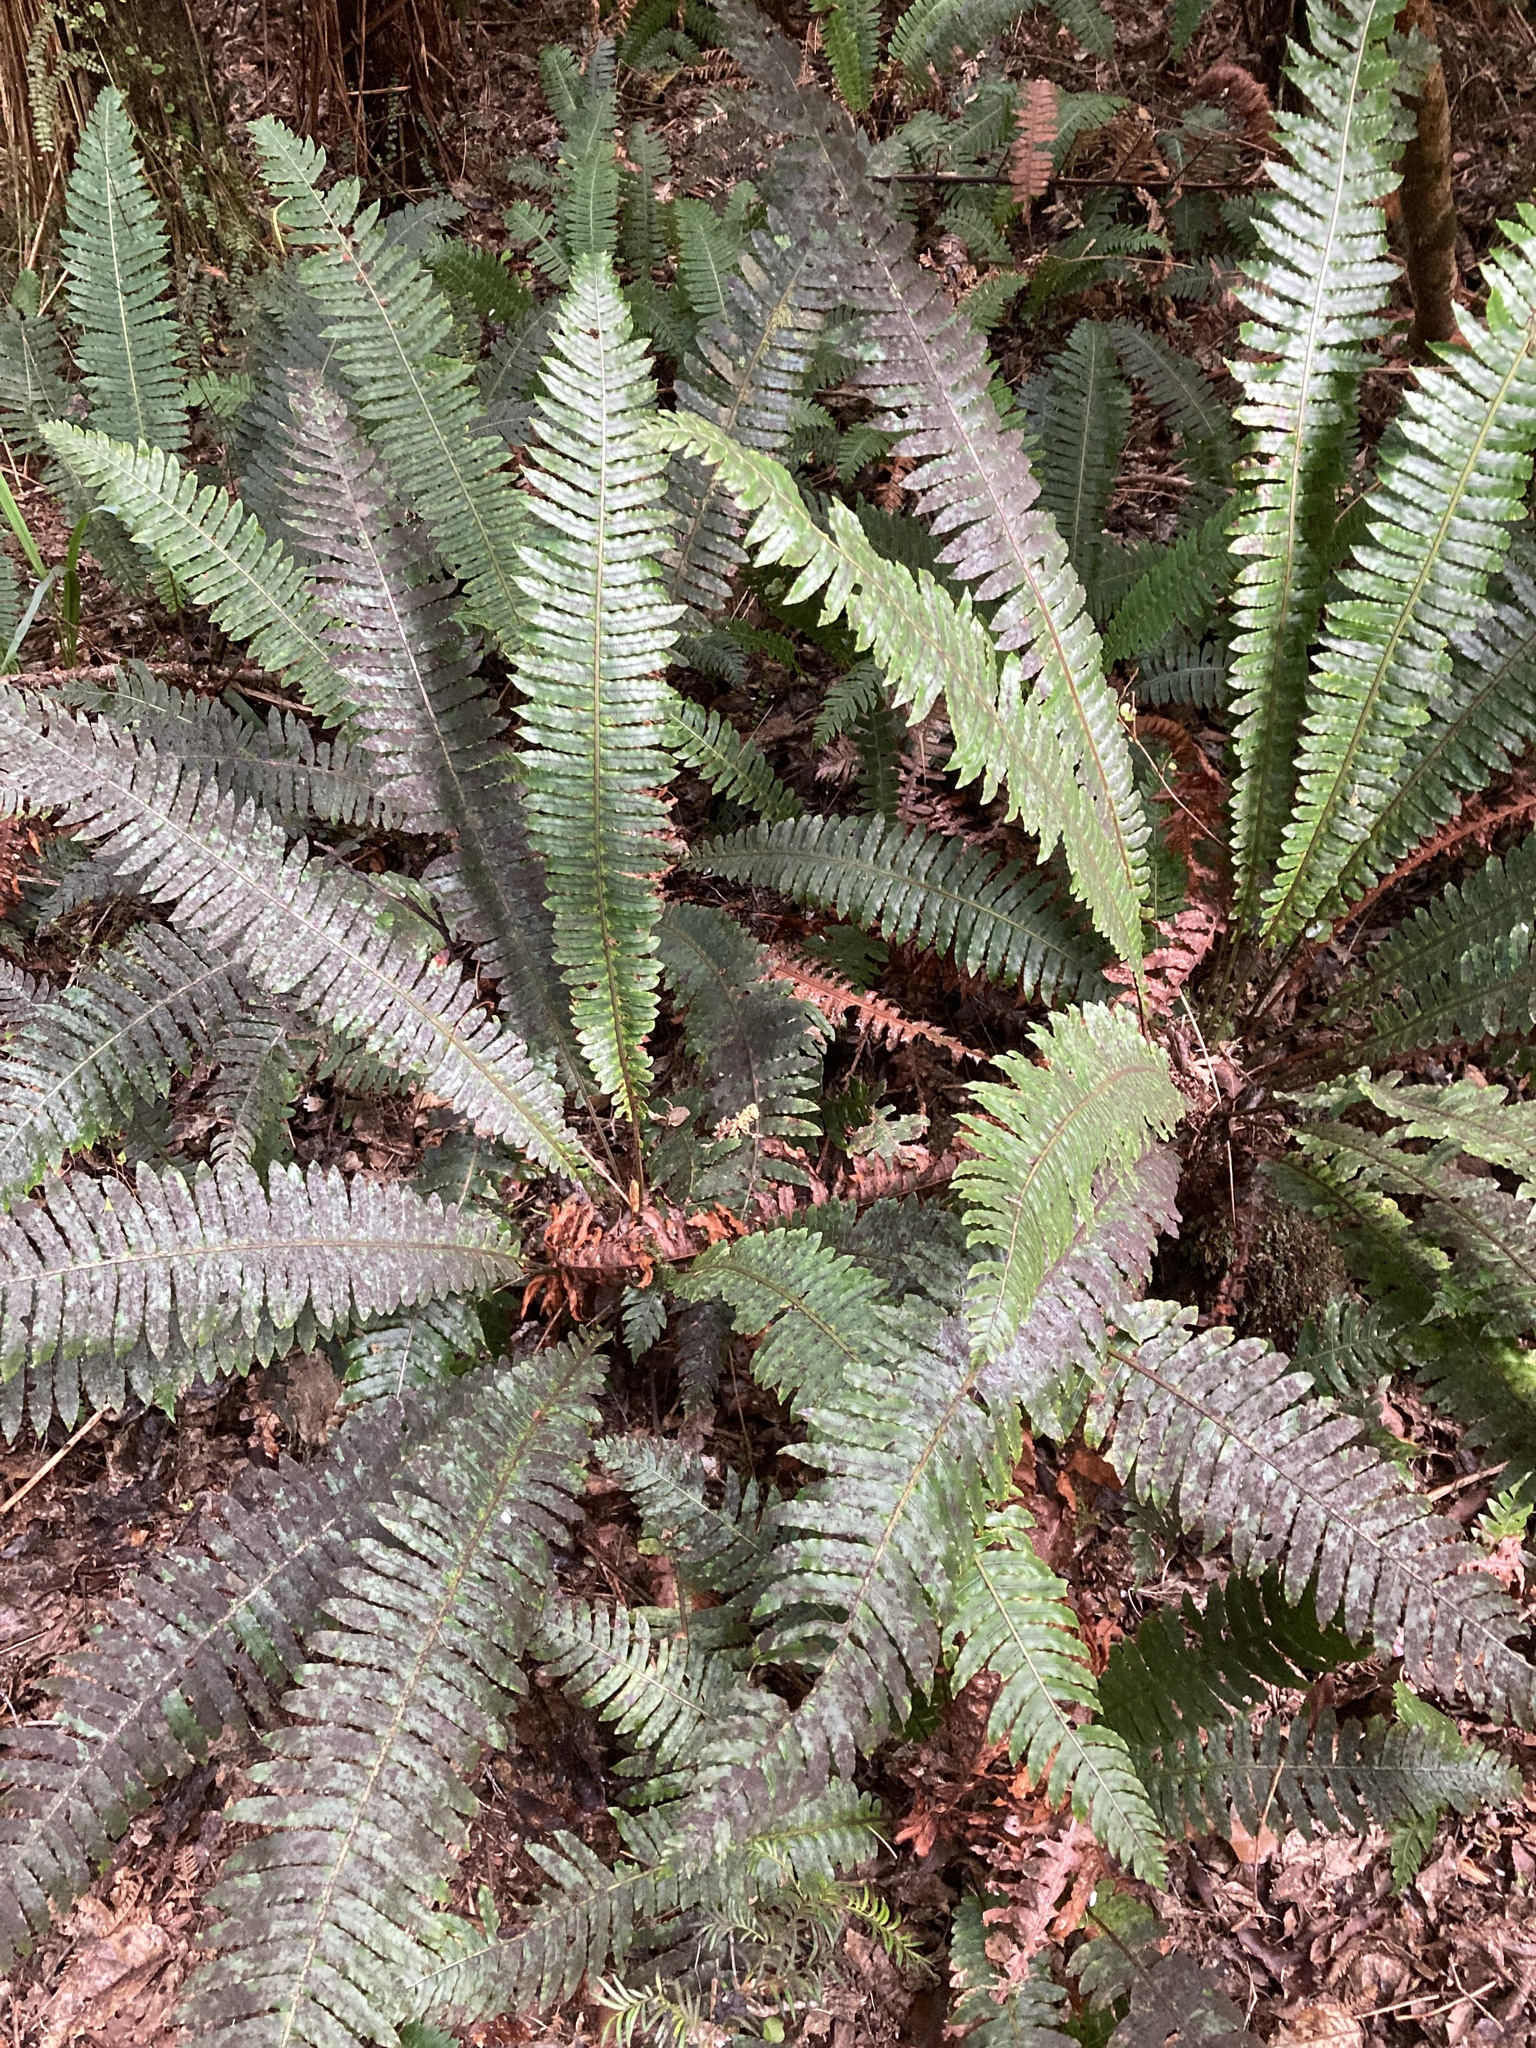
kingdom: Plantae
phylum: Tracheophyta
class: Polypodiopsida
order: Polypodiales
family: Blechnaceae
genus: Lomaria
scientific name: Lomaria discolor
